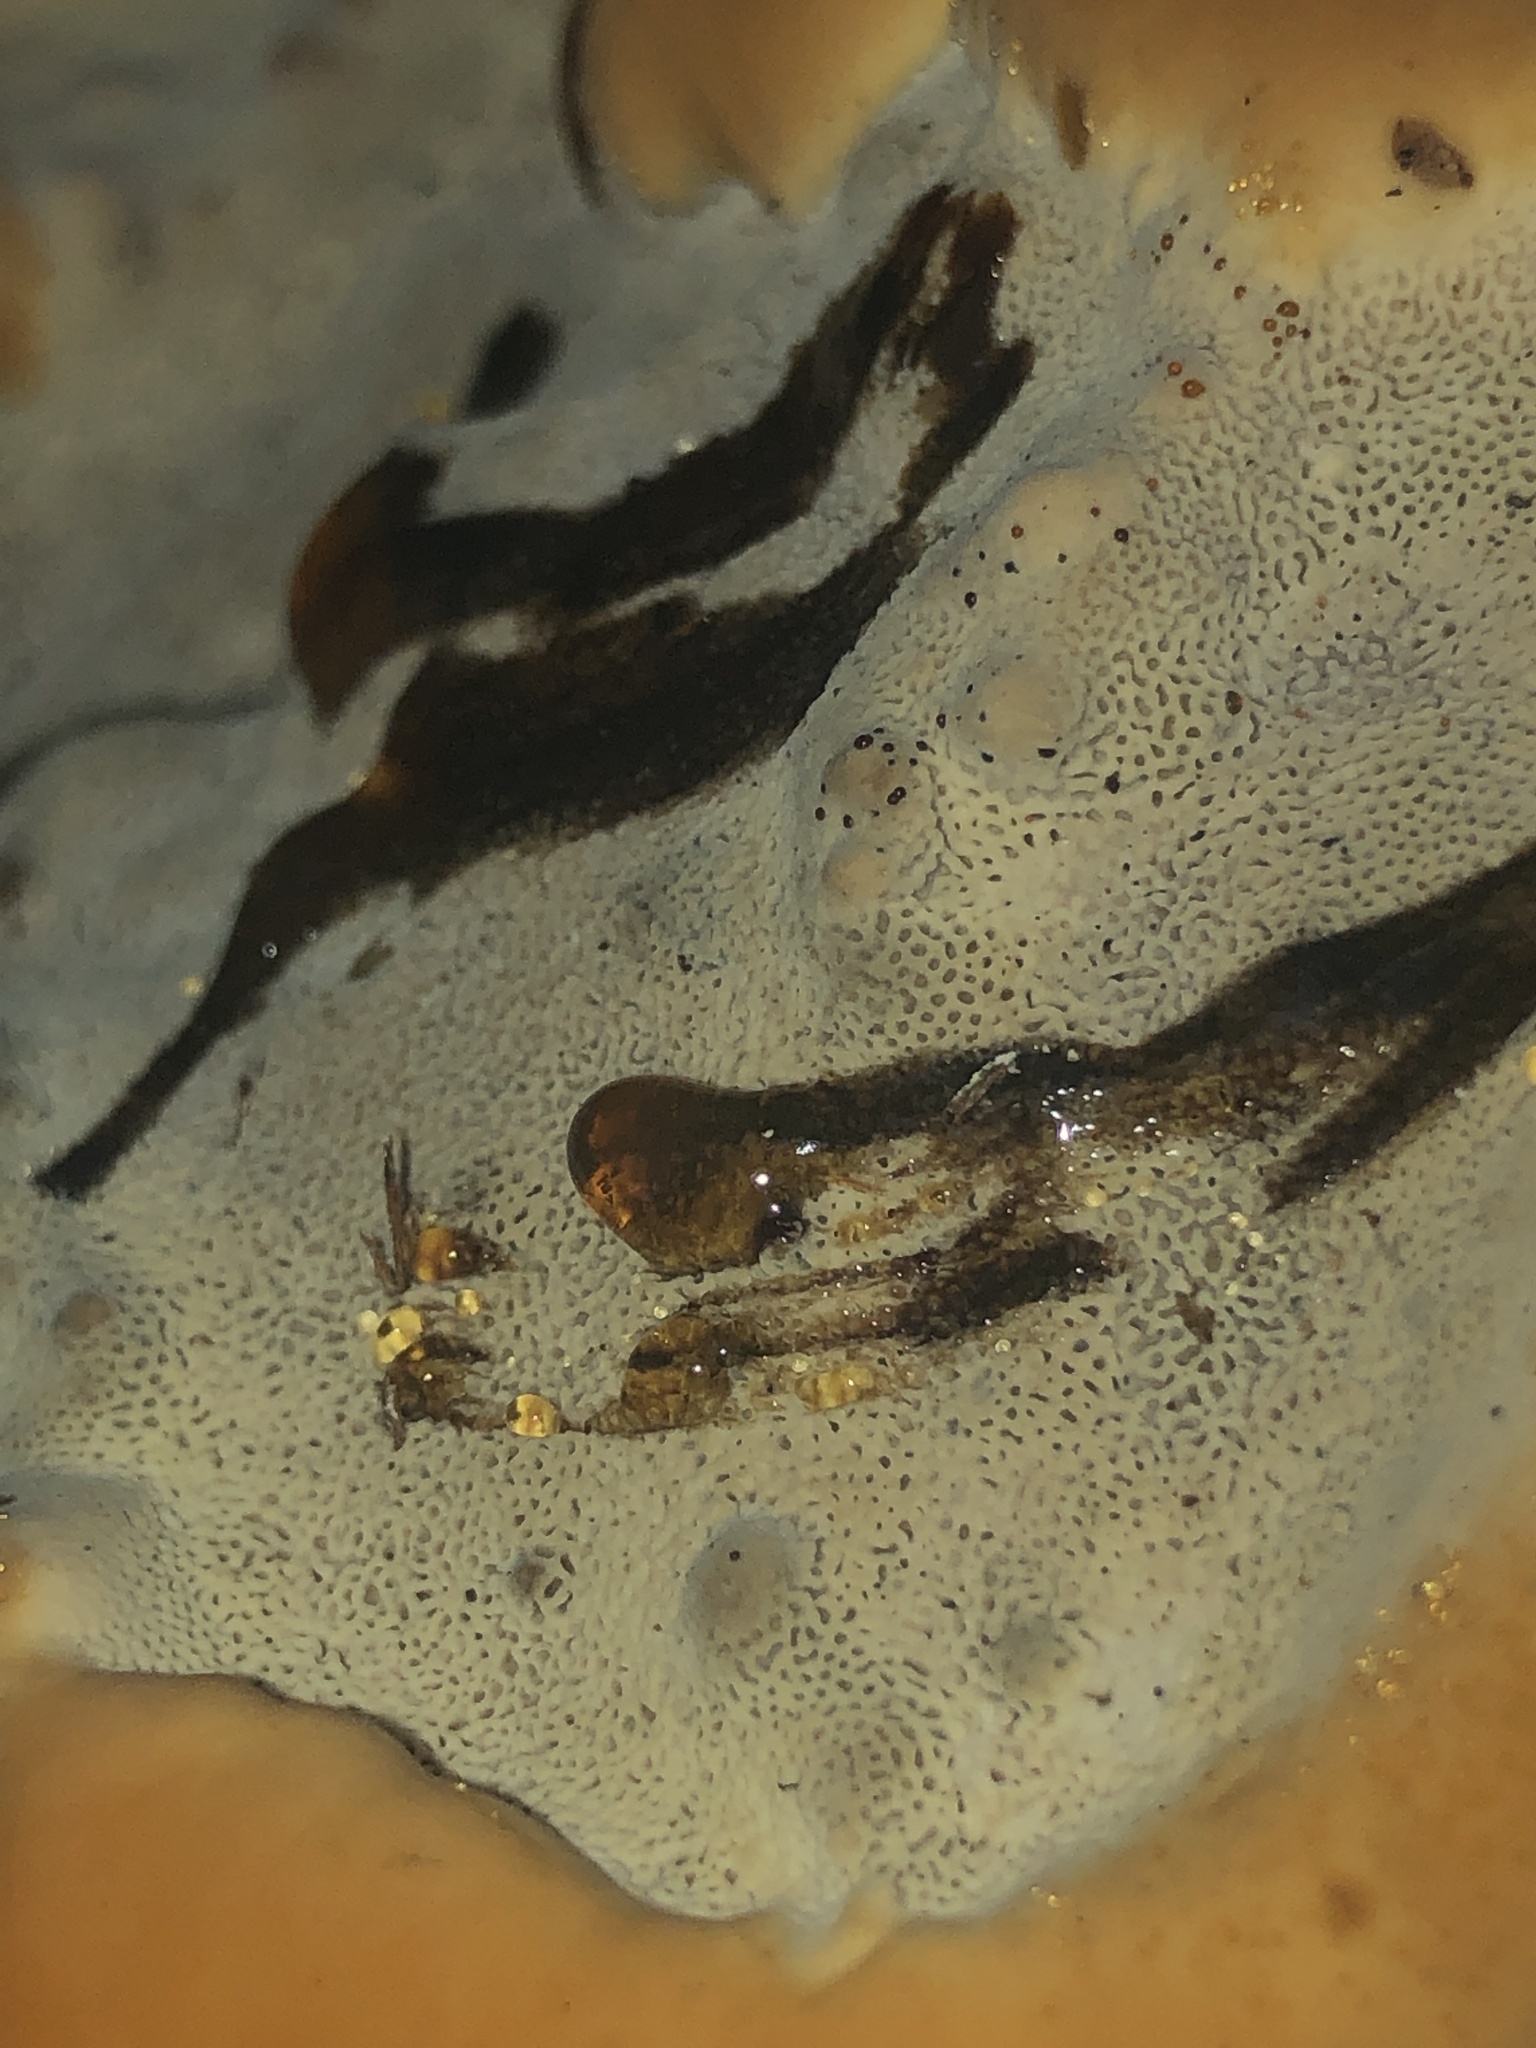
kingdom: Fungi
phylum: Basidiomycota
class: Agaricomycetes
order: Polyporales
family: Laetiporaceae
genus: Phaeolus
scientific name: Phaeolus schweinitzii
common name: Dyer's mazegill
